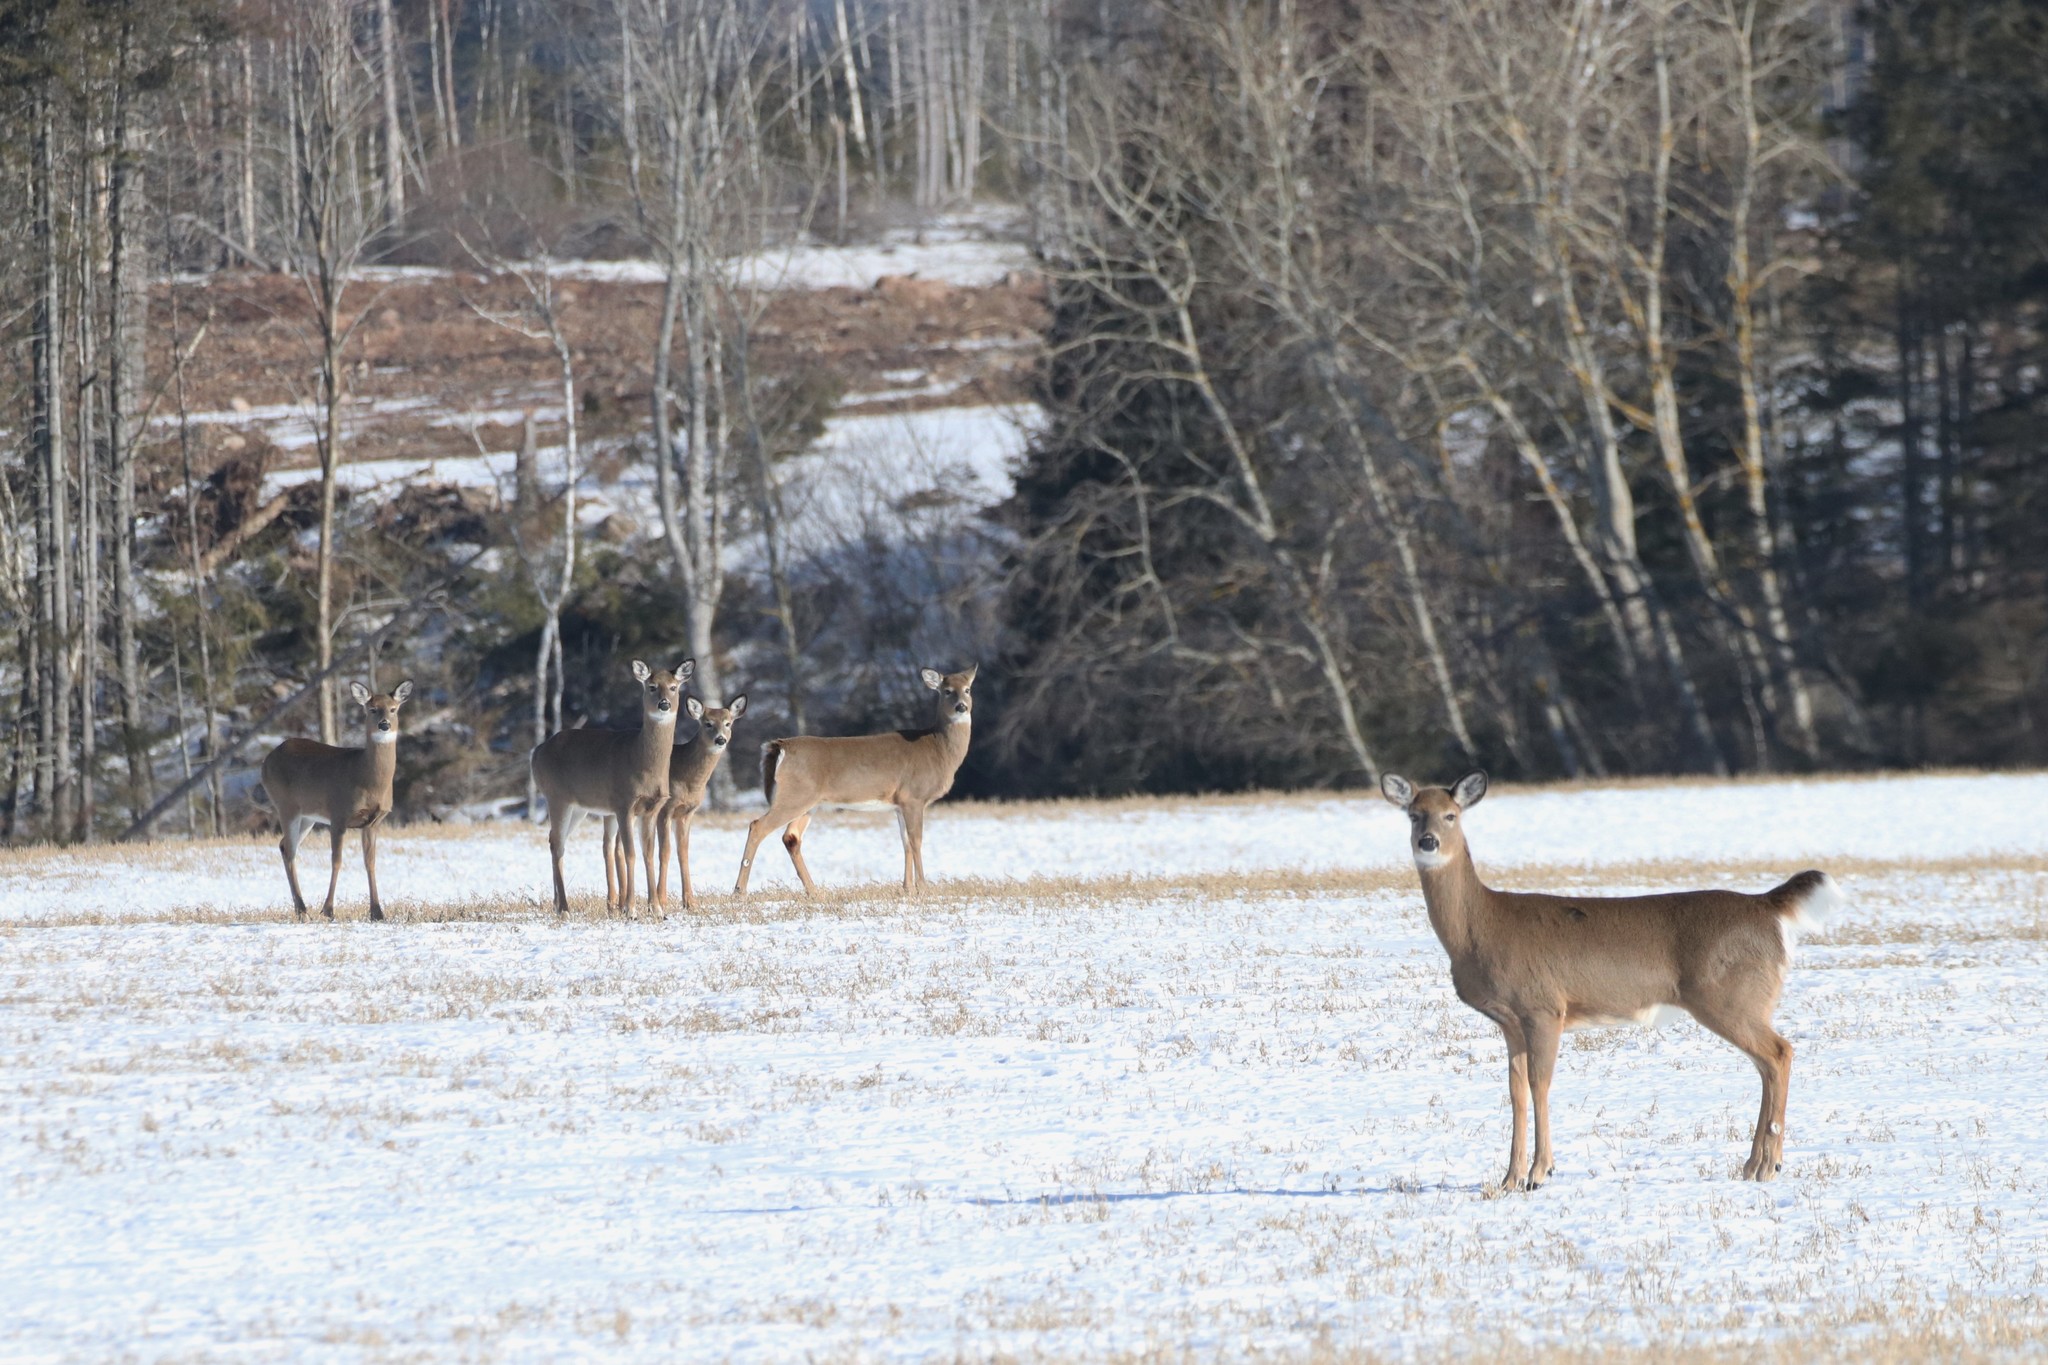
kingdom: Animalia
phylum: Chordata
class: Mammalia
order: Artiodactyla
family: Cervidae
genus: Odocoileus
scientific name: Odocoileus virginianus
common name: White-tailed deer
